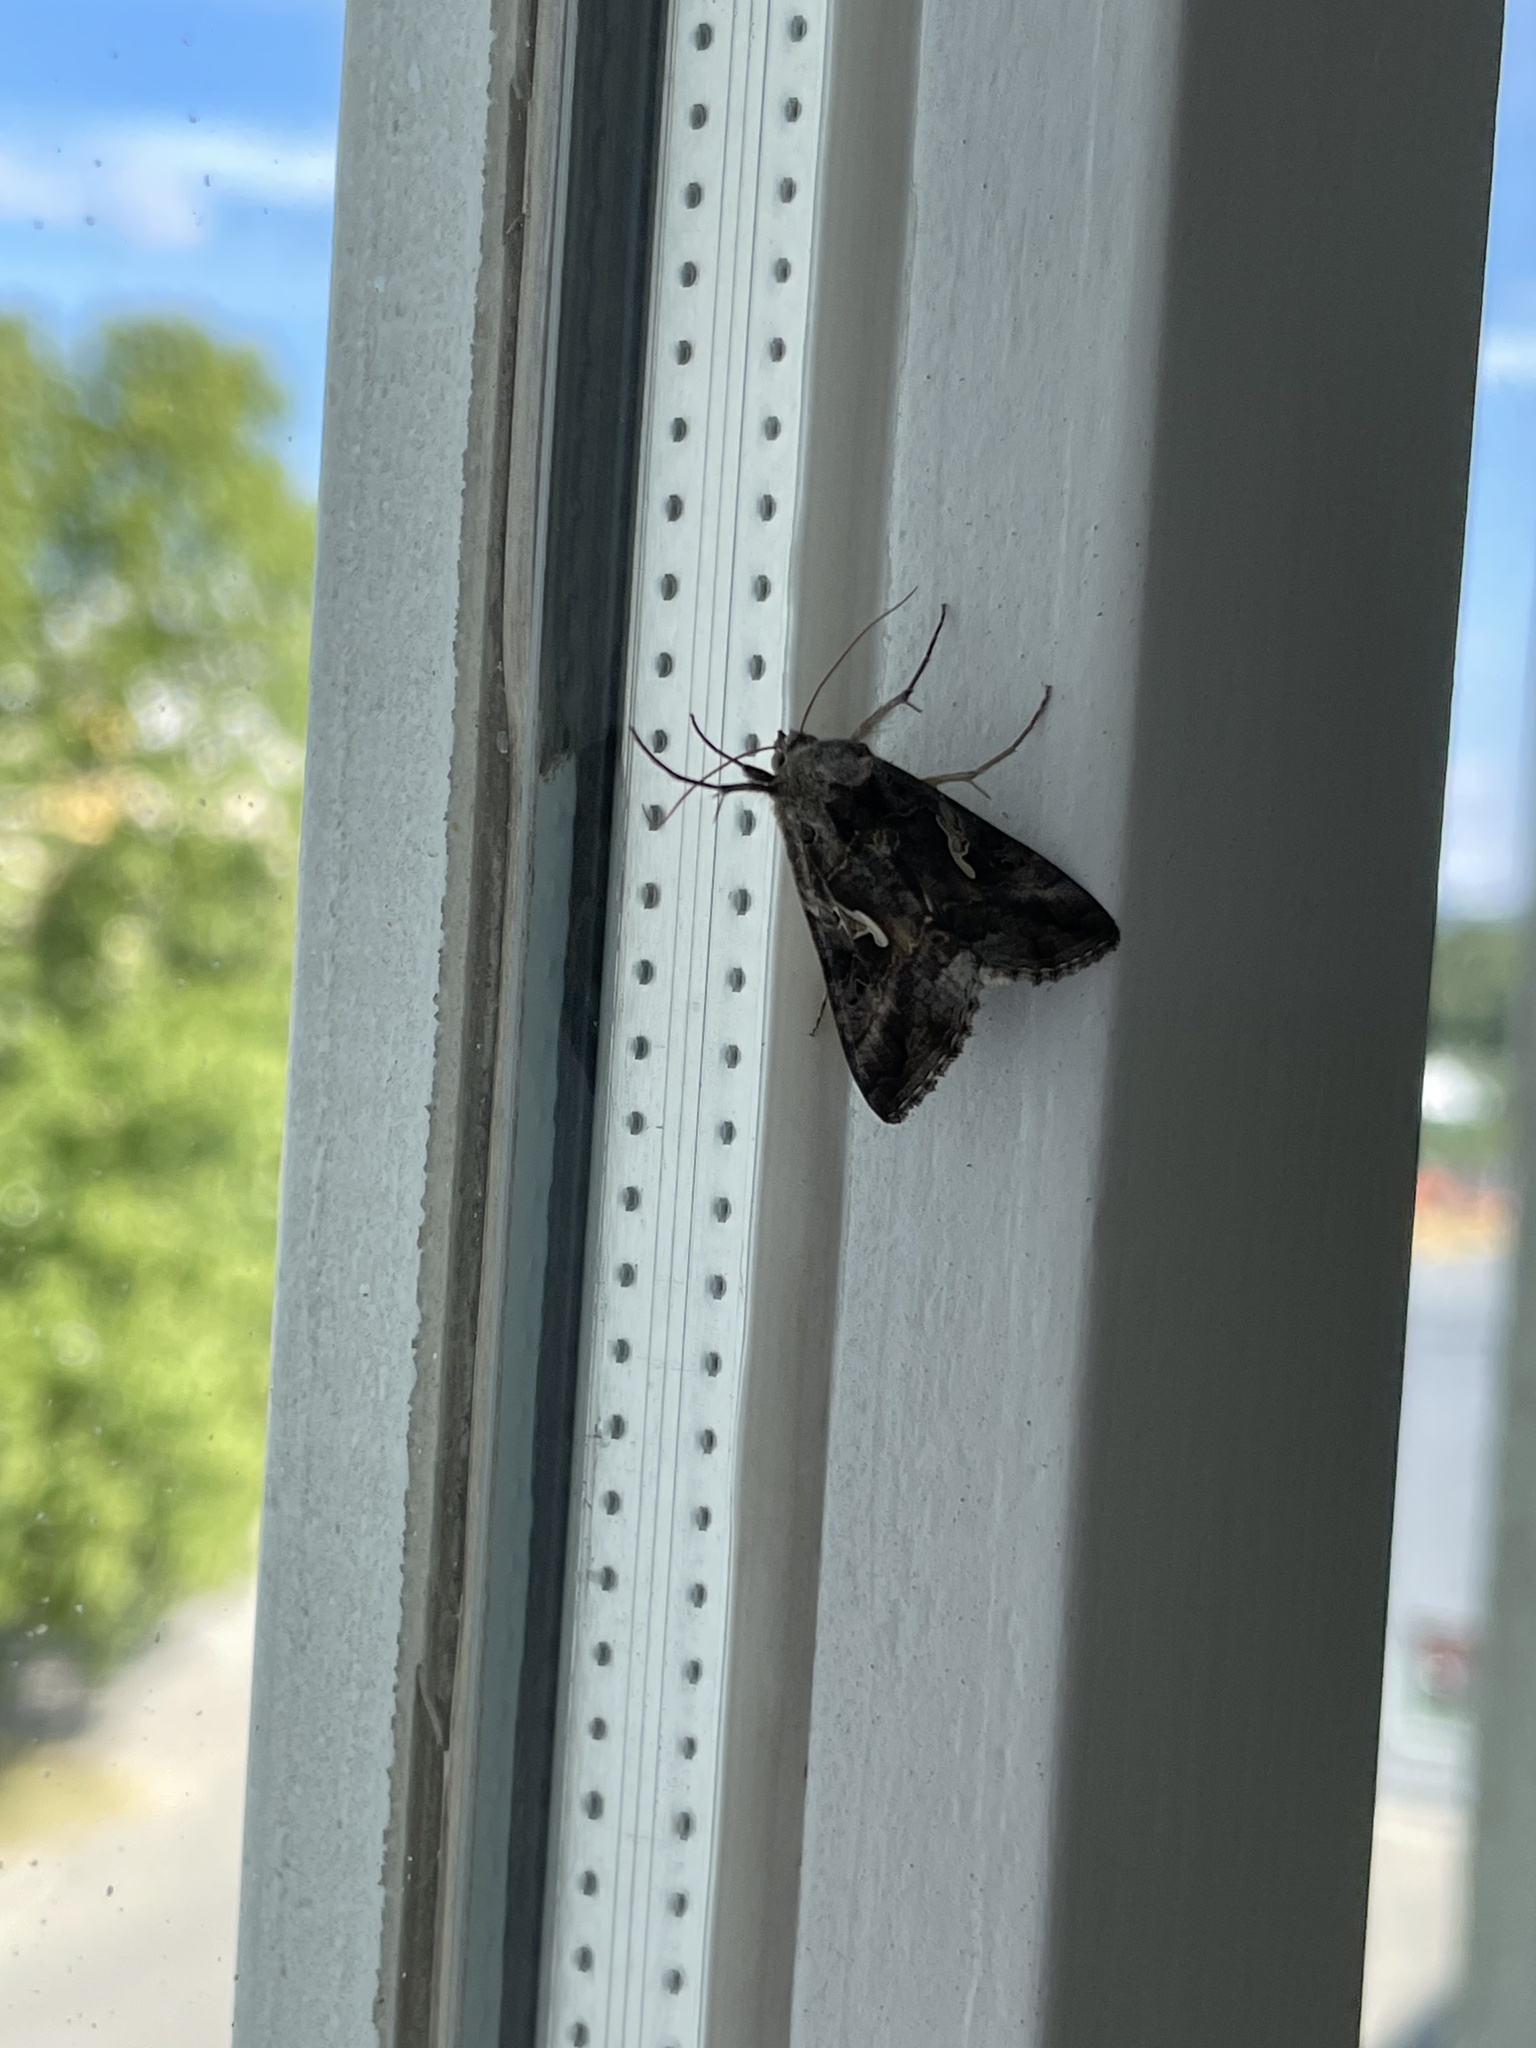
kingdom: Animalia
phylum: Arthropoda
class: Insecta
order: Lepidoptera
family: Noctuidae
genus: Autographa
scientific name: Autographa gamma
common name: Silver y
